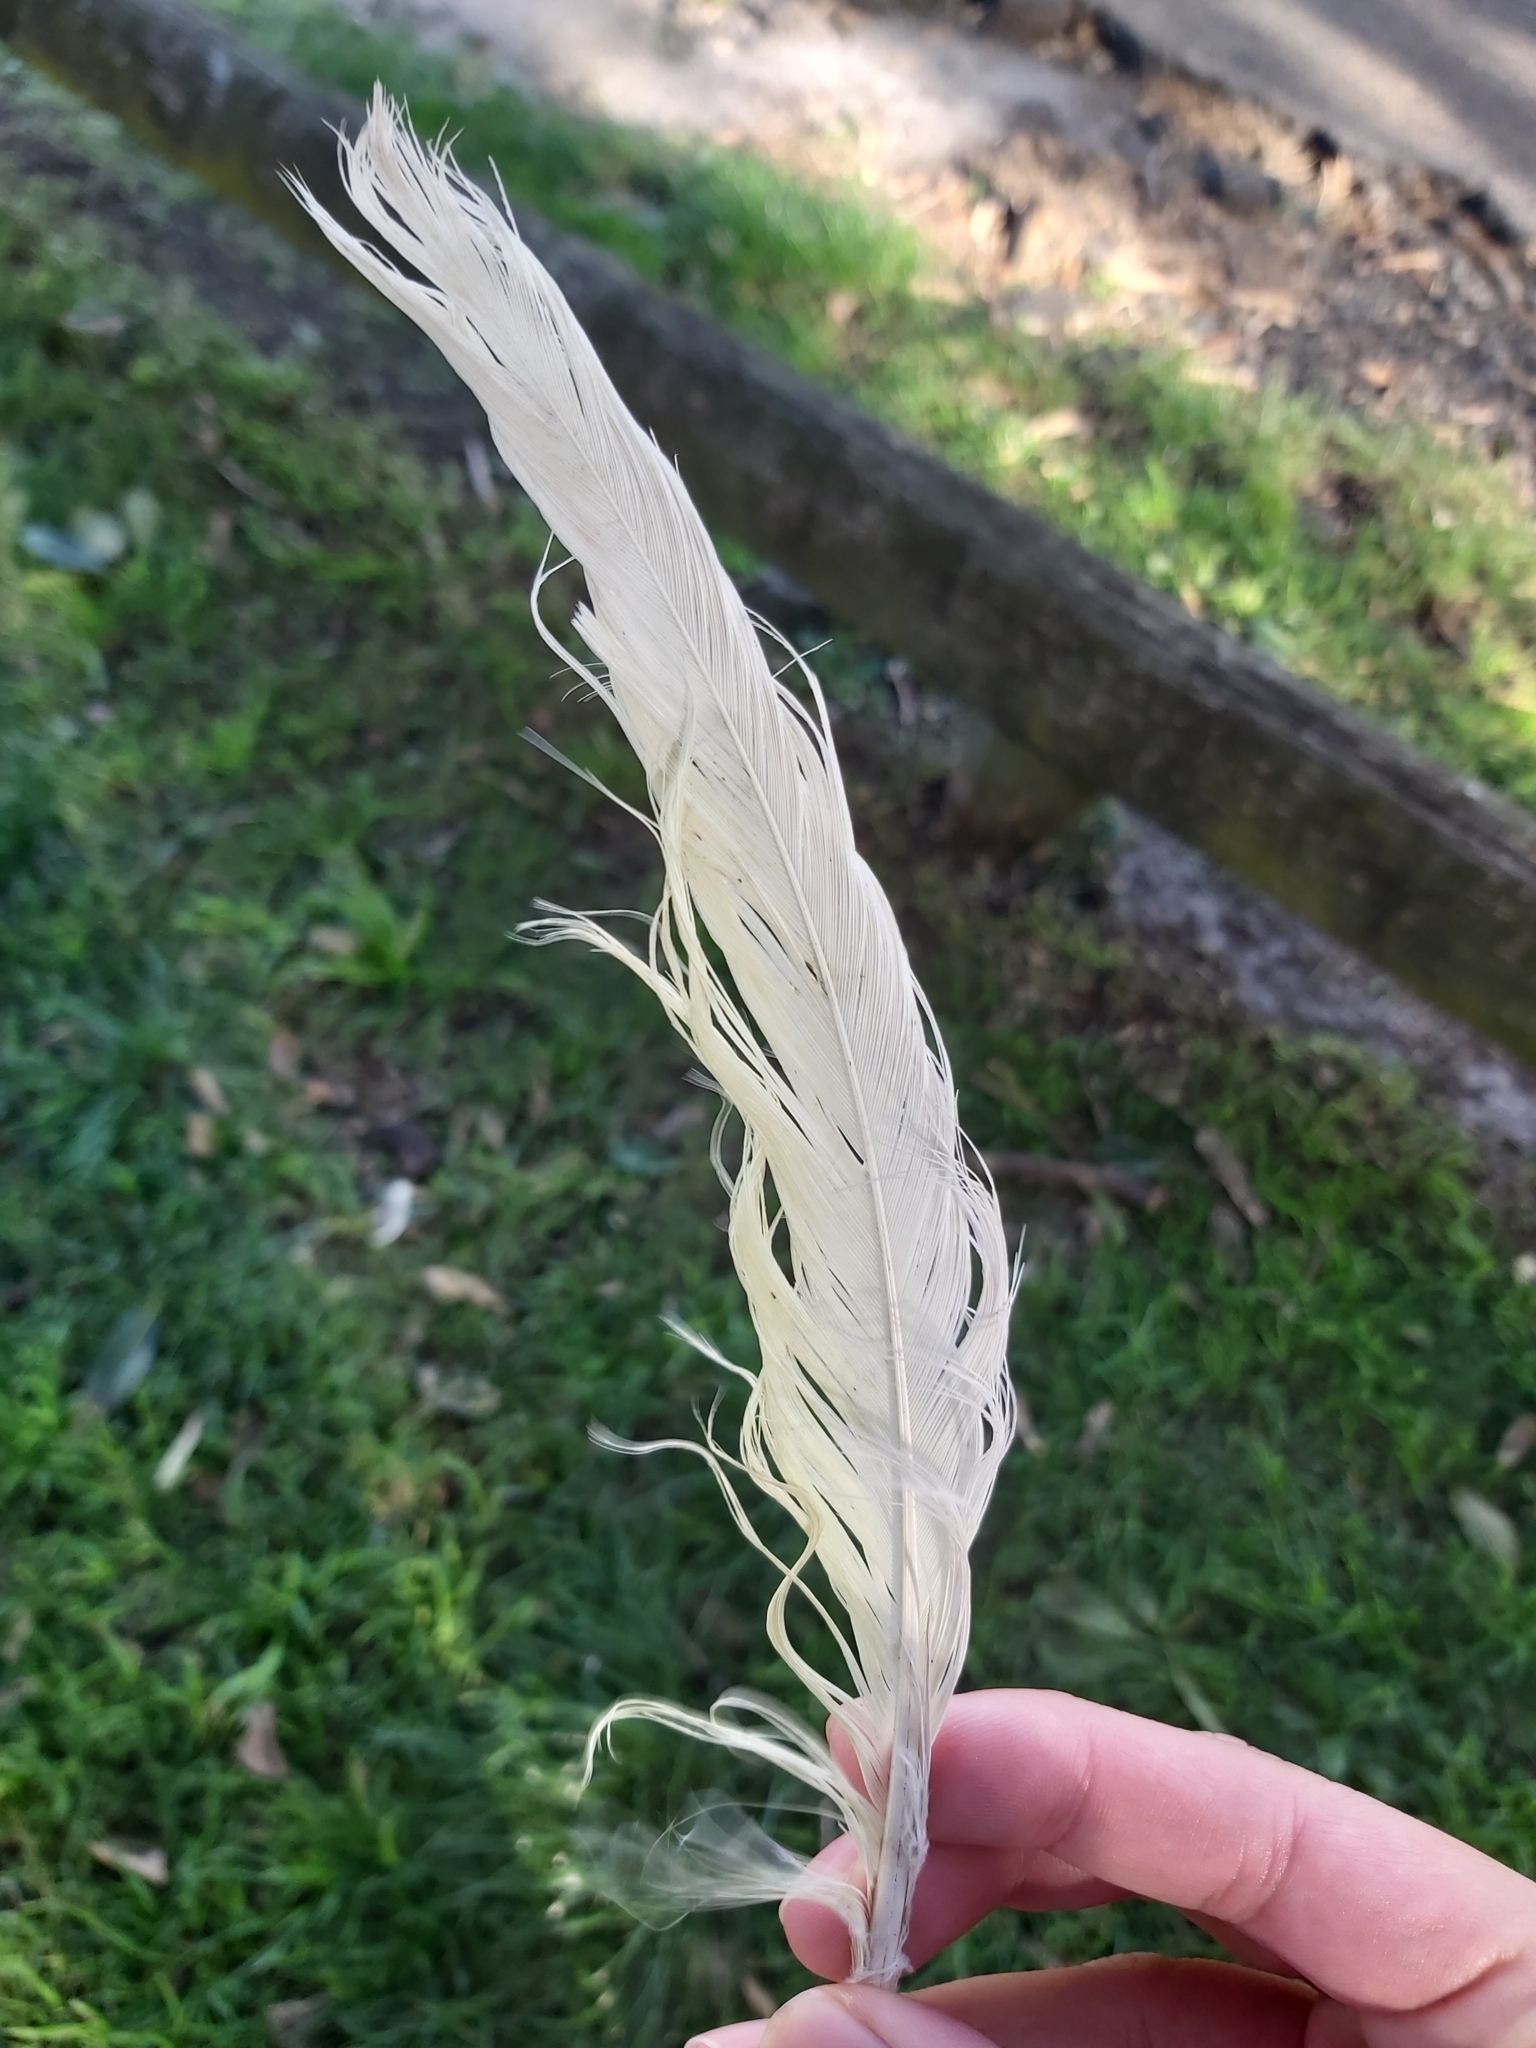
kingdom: Animalia
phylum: Chordata
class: Aves
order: Psittaciformes
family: Psittacidae
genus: Cacatua
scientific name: Cacatua galerita
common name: Sulphur-crested cockatoo
